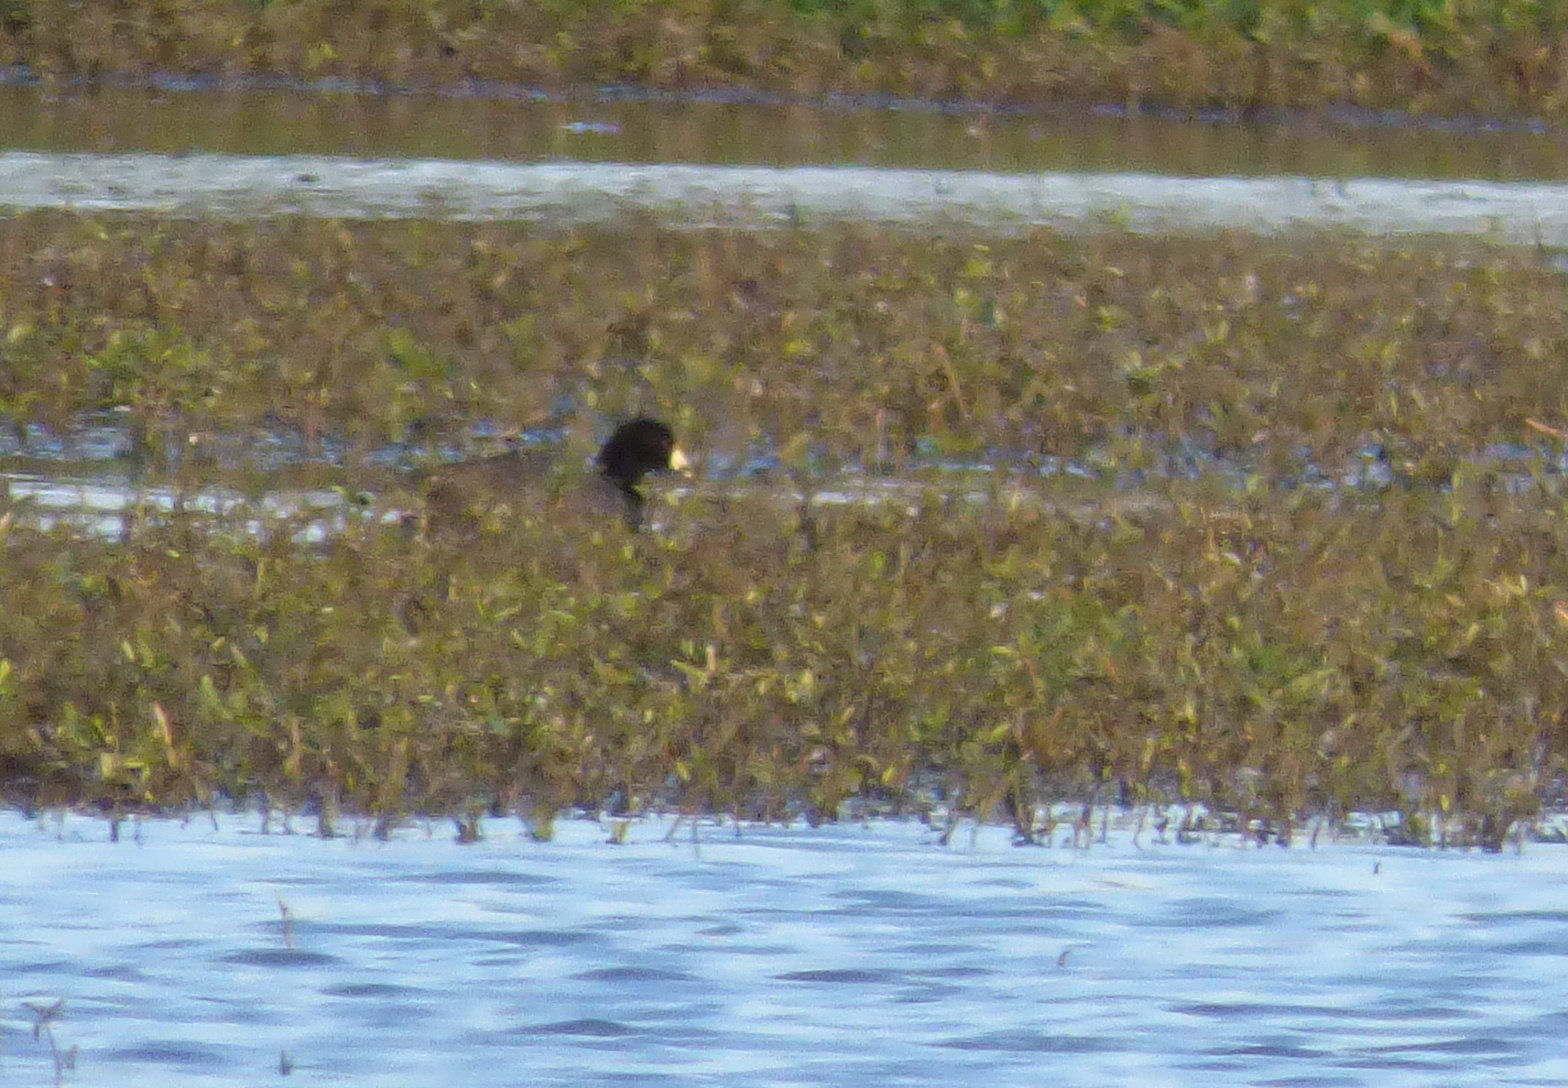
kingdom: Animalia
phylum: Chordata
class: Aves
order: Gruiformes
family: Rallidae
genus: Fulica
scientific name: Fulica leucoptera
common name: White-winged coot
